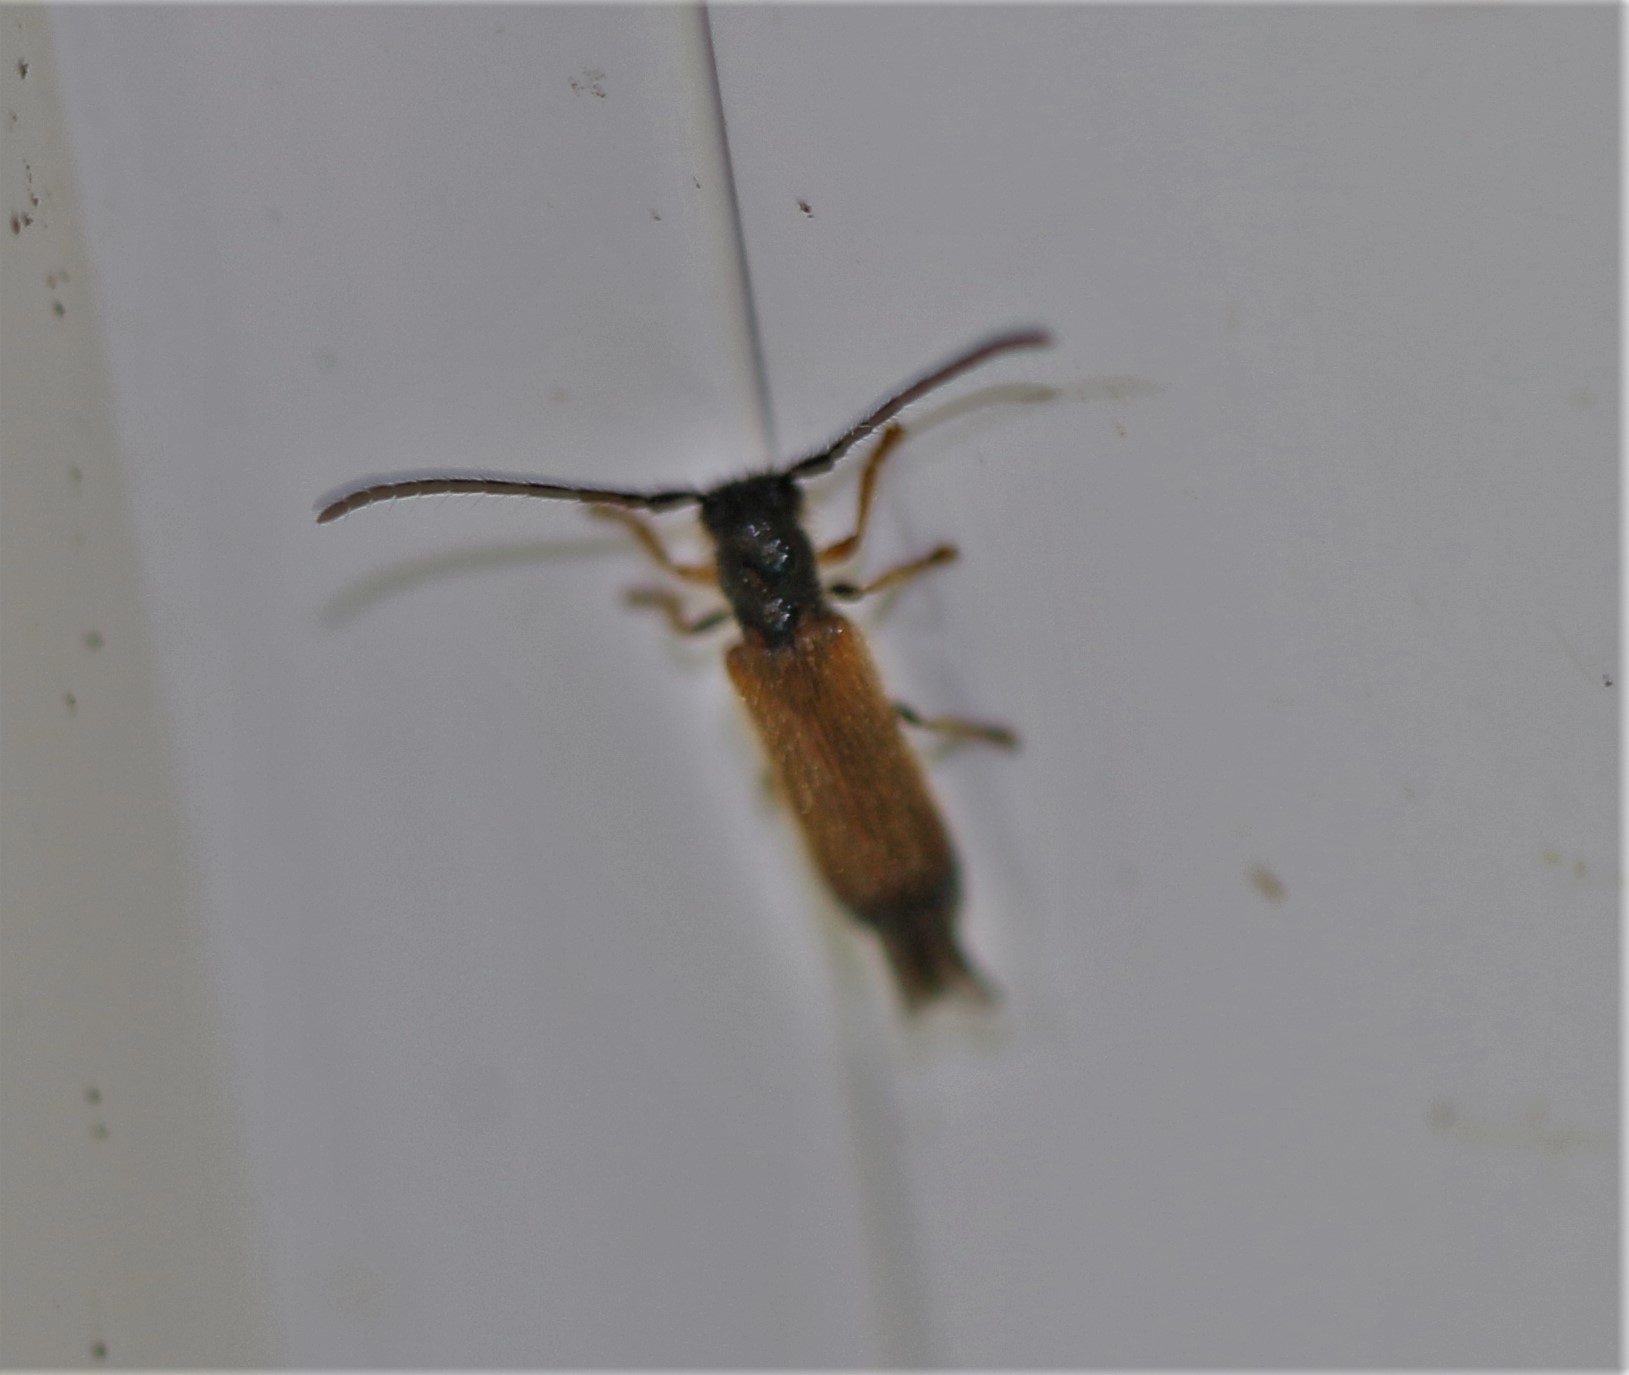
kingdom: Animalia
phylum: Arthropoda
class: Insecta
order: Coleoptera
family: Cerambycidae
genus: Tetrops
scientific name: Tetrops praeustus
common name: Plum beetle
